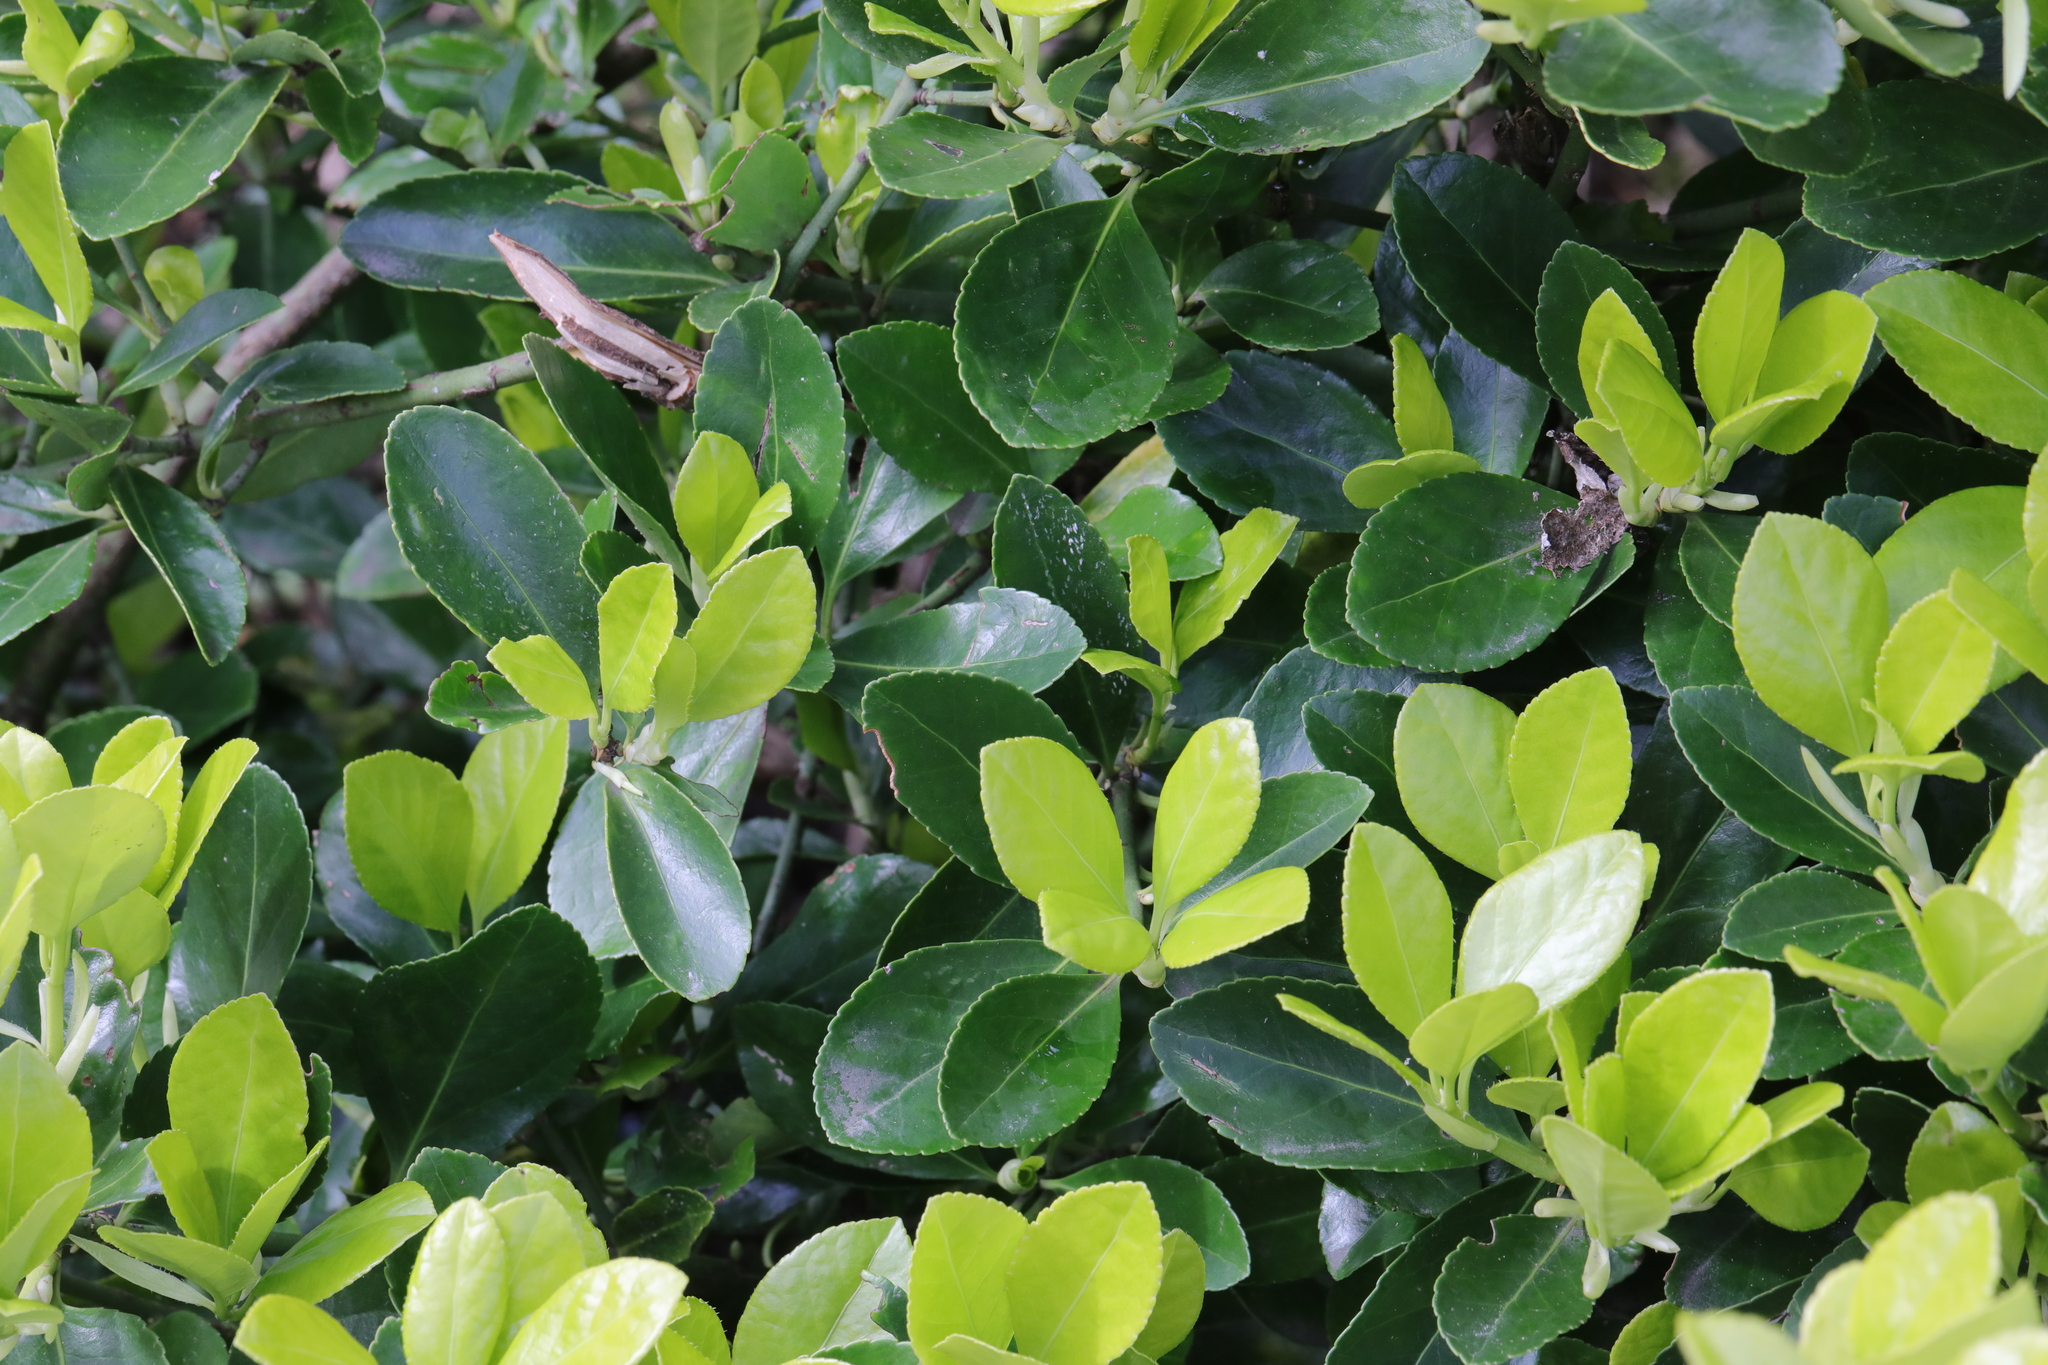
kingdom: Plantae
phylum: Tracheophyta
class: Magnoliopsida
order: Celastrales
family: Celastraceae
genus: Euonymus
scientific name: Euonymus japonicus
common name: Japanese spindletree
